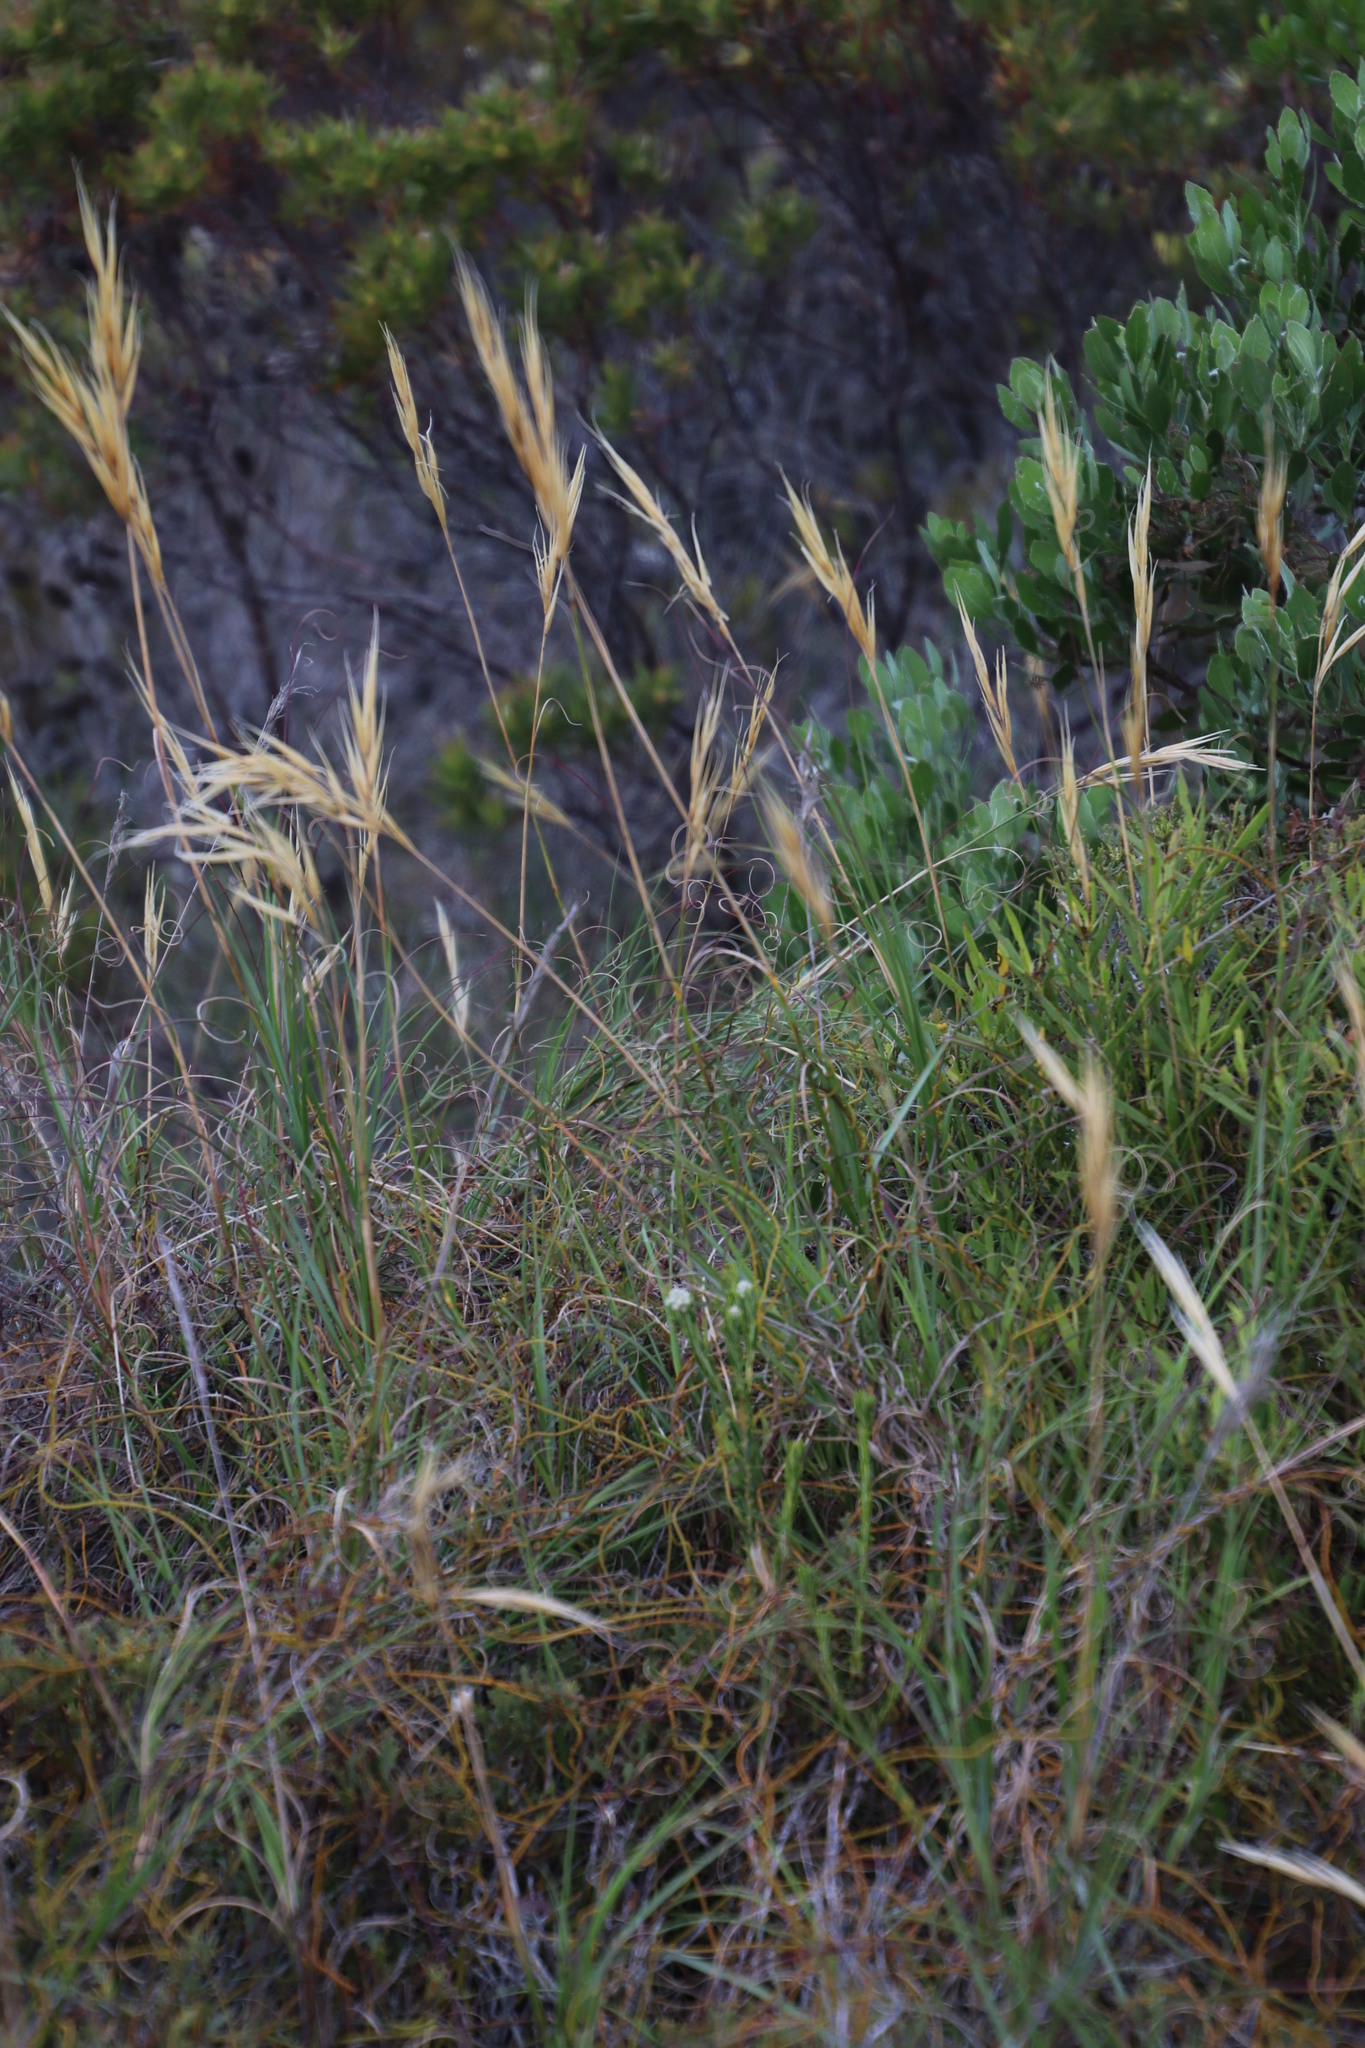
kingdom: Plantae
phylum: Tracheophyta
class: Liliopsida
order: Poales
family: Poaceae
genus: Pseudopentameris
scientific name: Pseudopentameris macrantha
